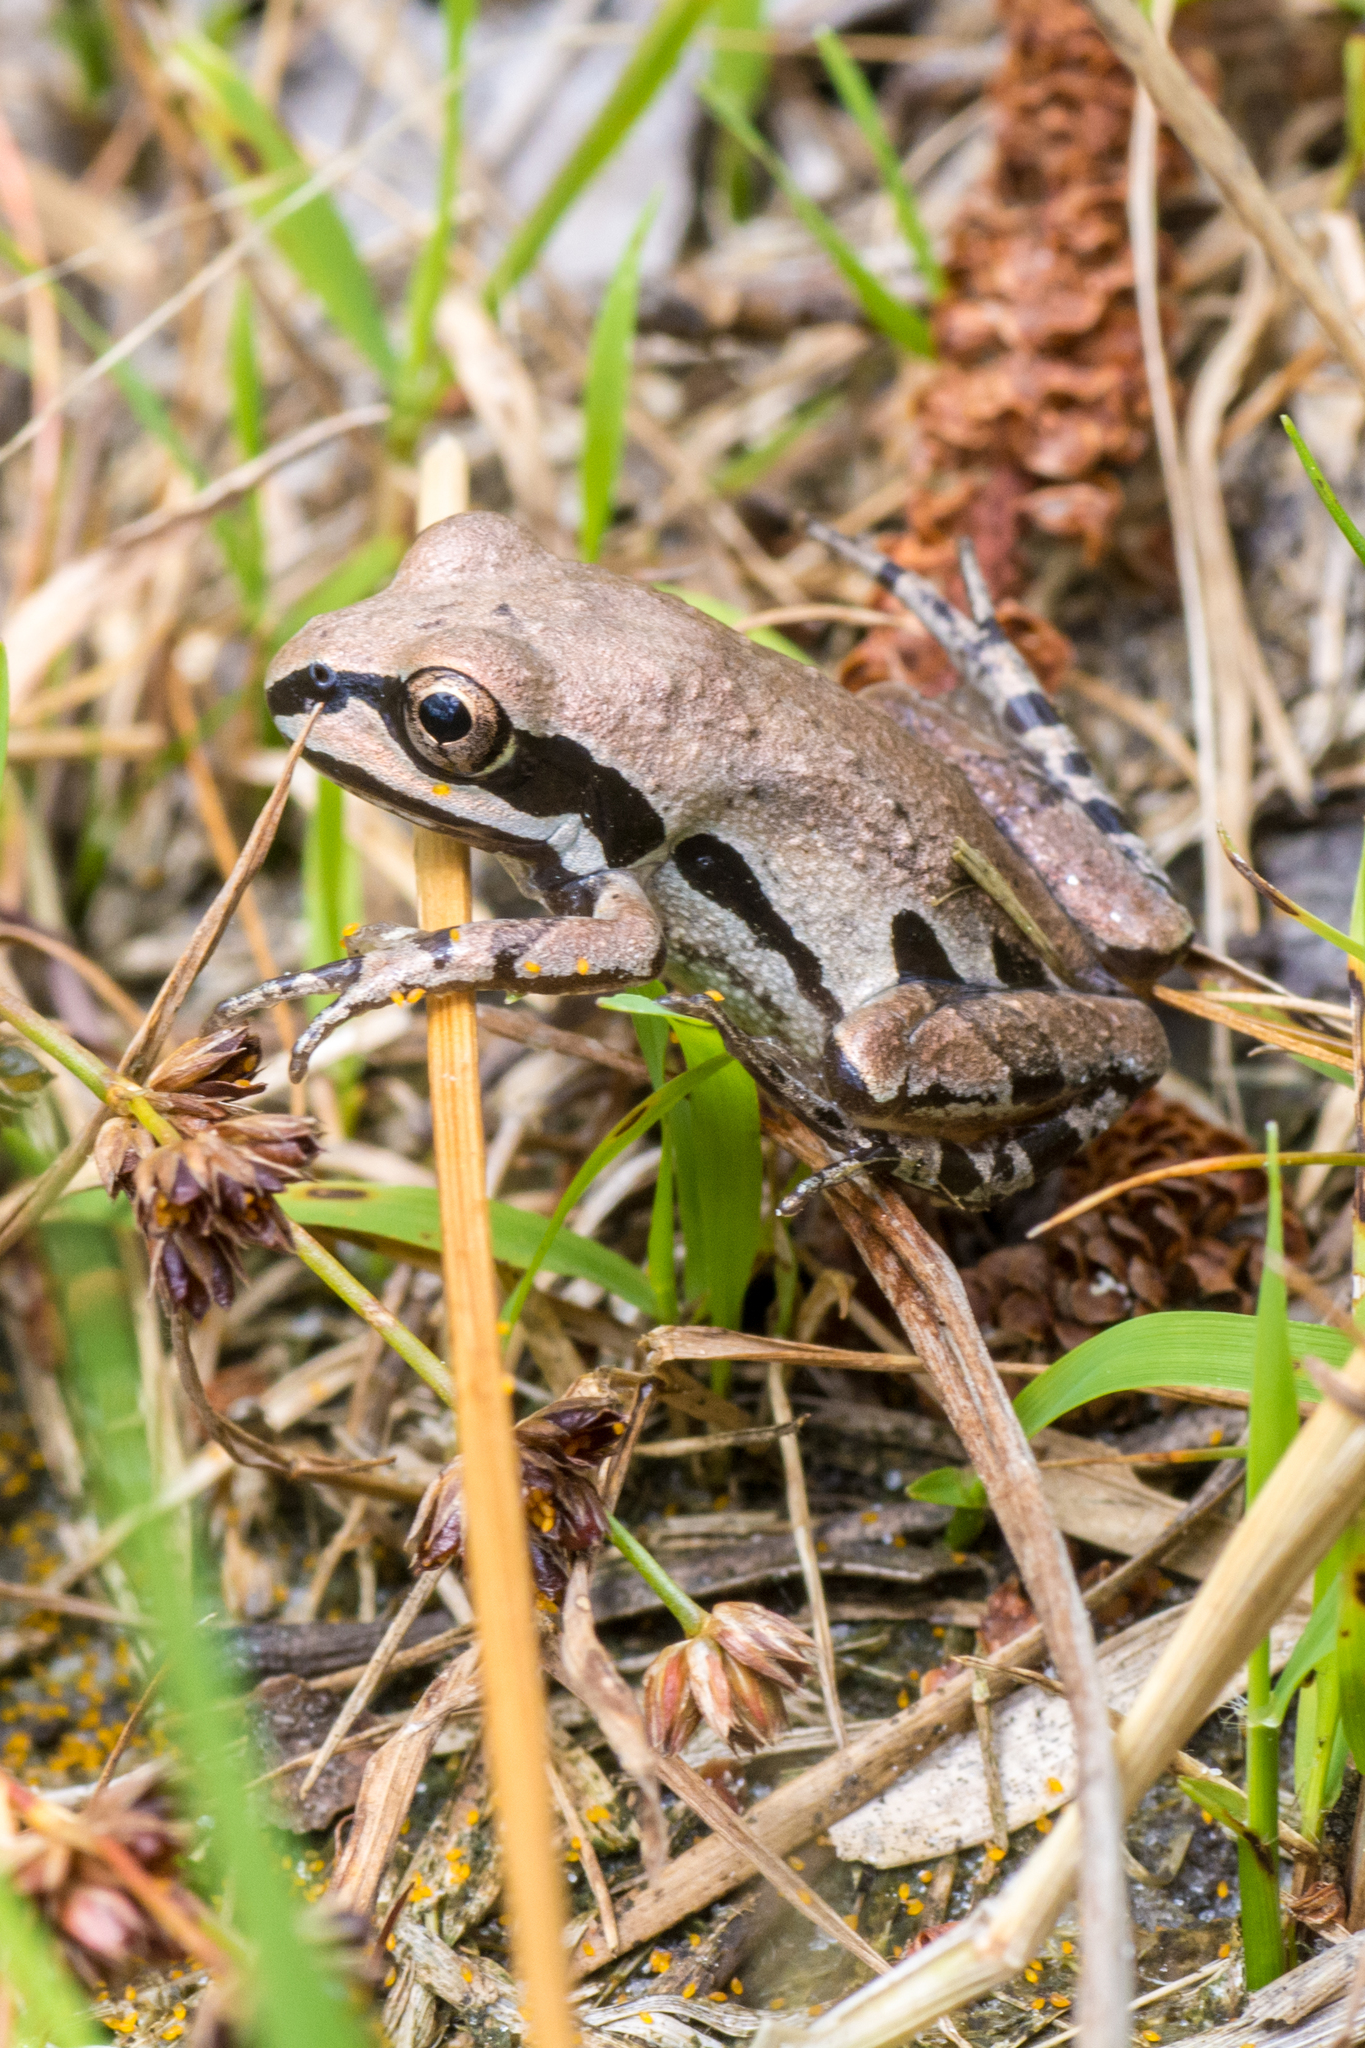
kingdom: Animalia
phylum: Chordata
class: Amphibia
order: Anura
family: Hylidae
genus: Pseudacris
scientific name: Pseudacris ornata
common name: Ornate chorus frog
